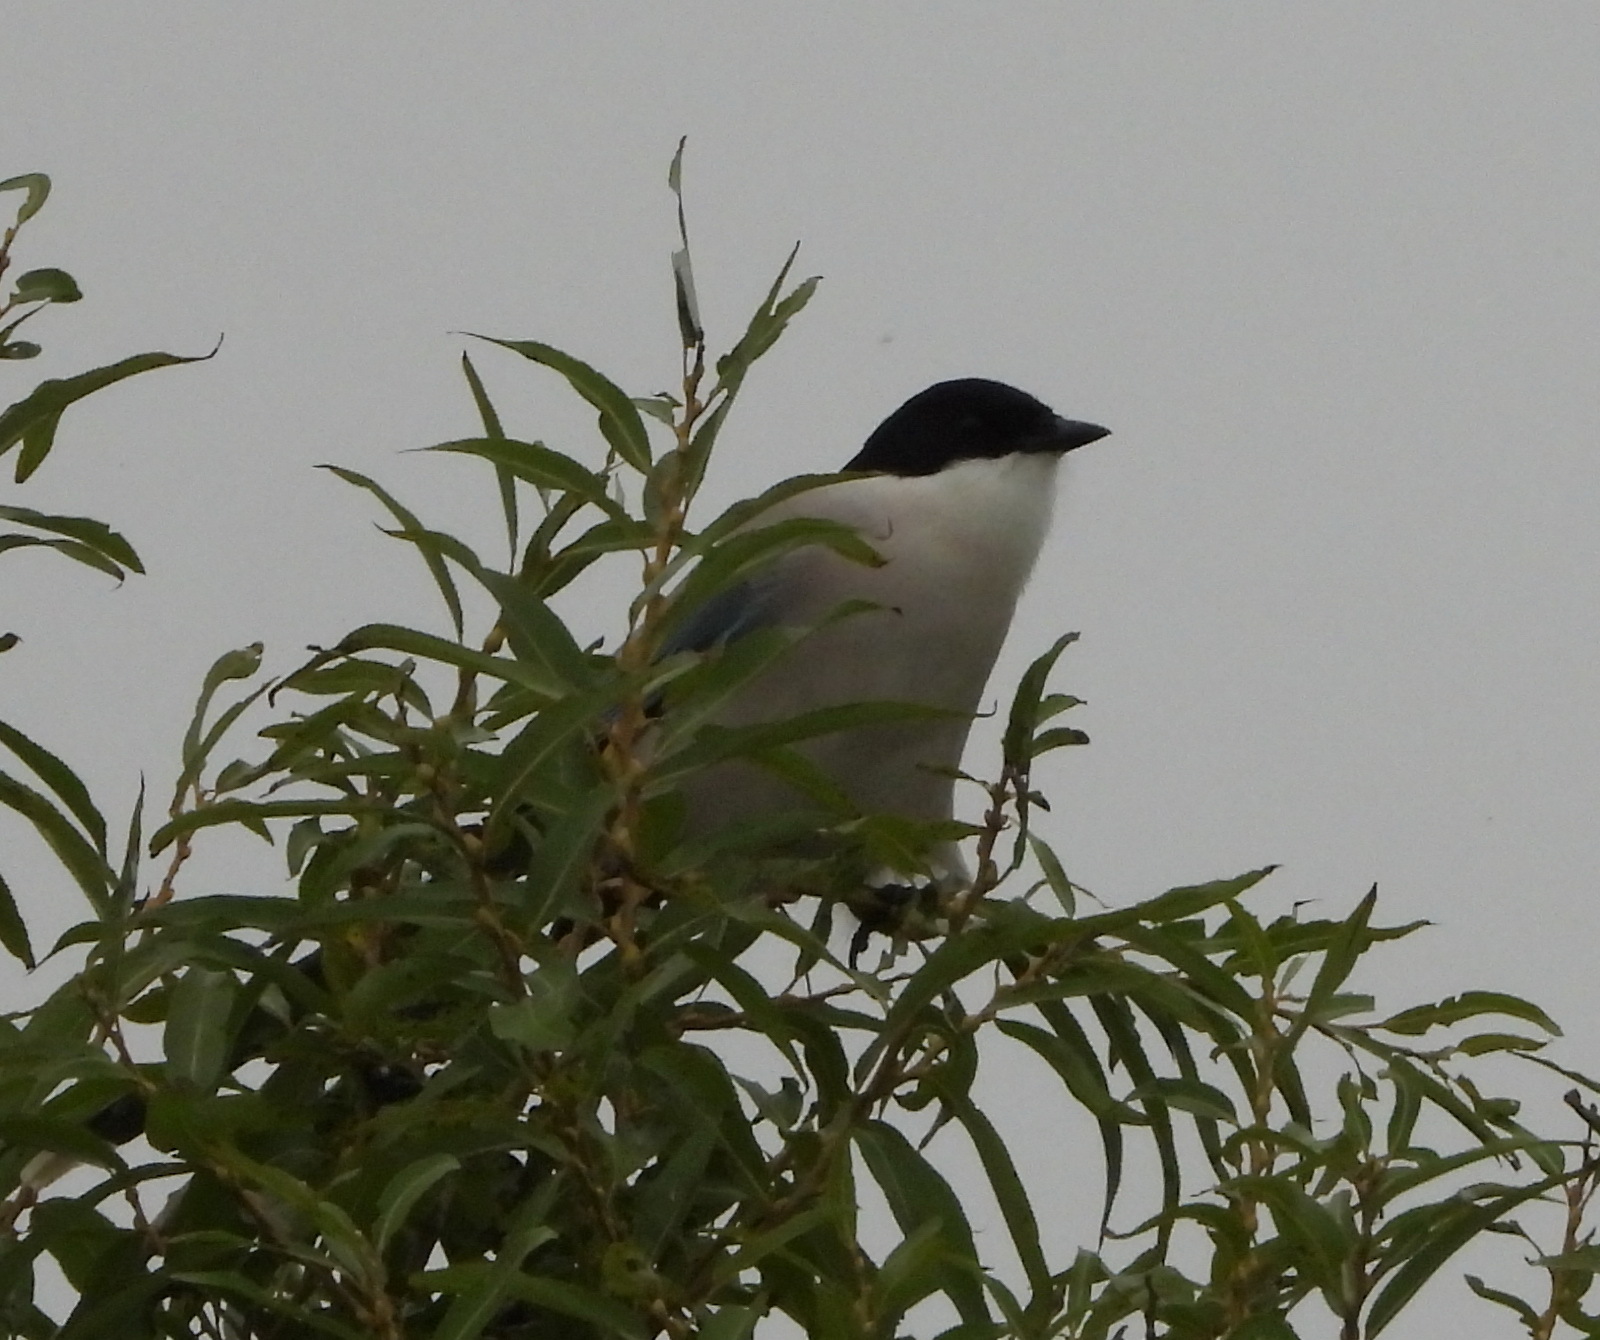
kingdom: Animalia
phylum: Chordata
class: Aves
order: Passeriformes
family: Corvidae
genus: Cyanopica
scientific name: Cyanopica cyanus
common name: Azure-winged magpie
